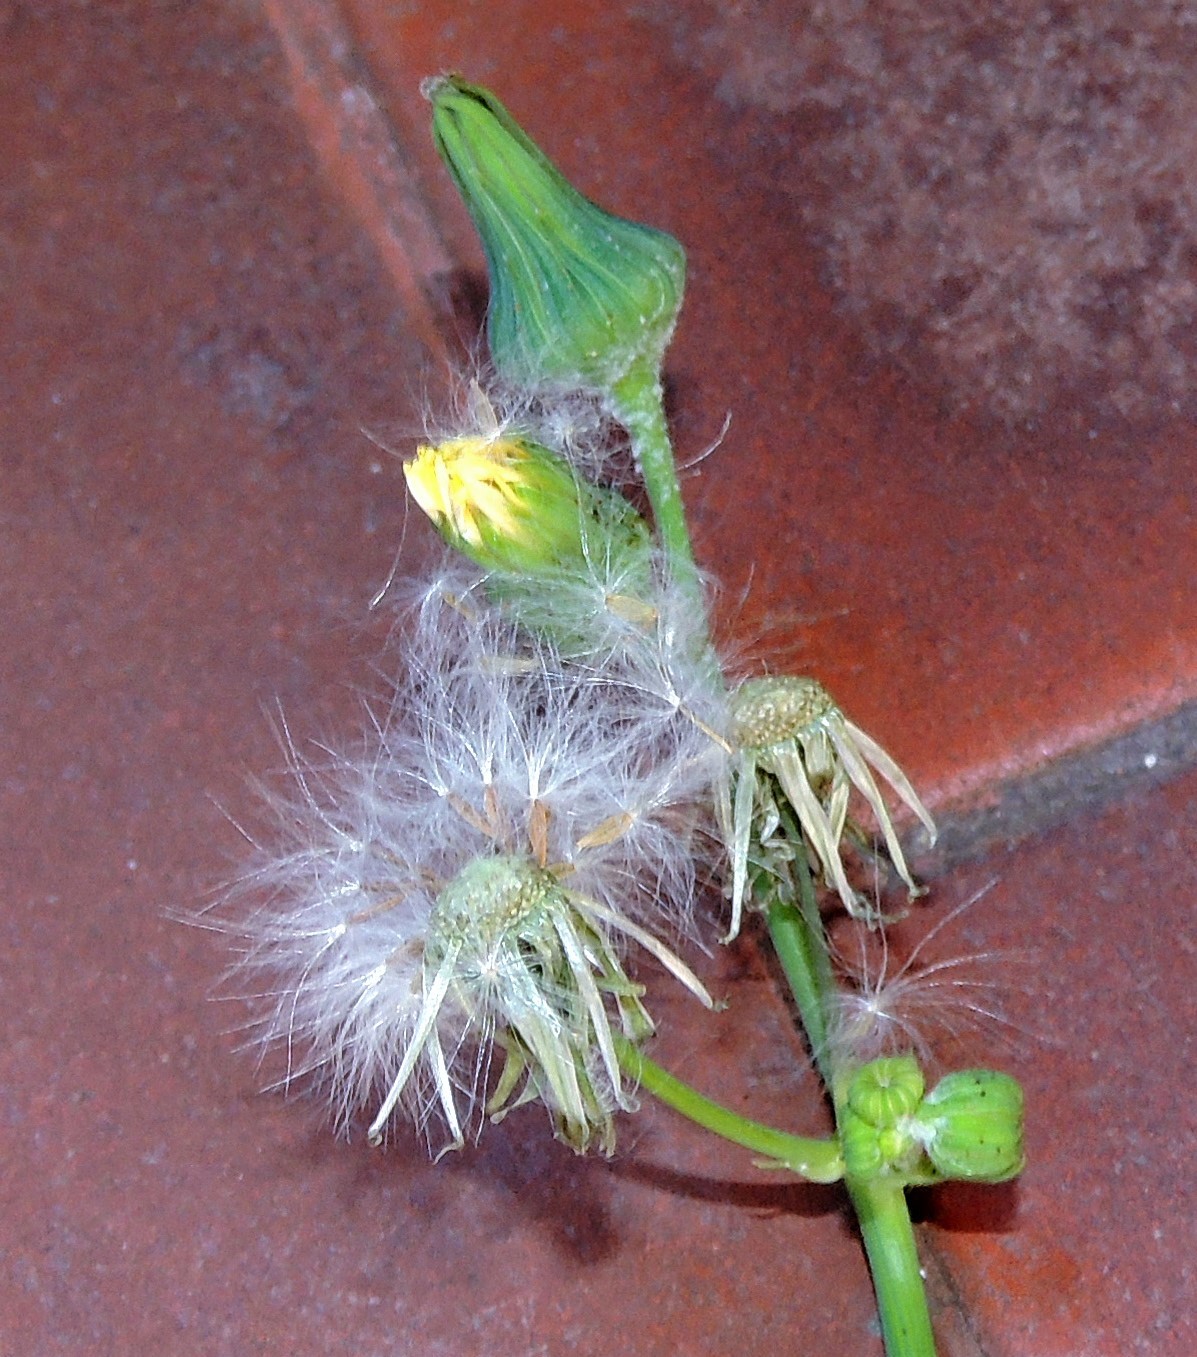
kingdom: Plantae
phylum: Tracheophyta
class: Magnoliopsida
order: Asterales
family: Asteraceae
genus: Sonchus
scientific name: Sonchus oleraceus
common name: Common sowthistle
